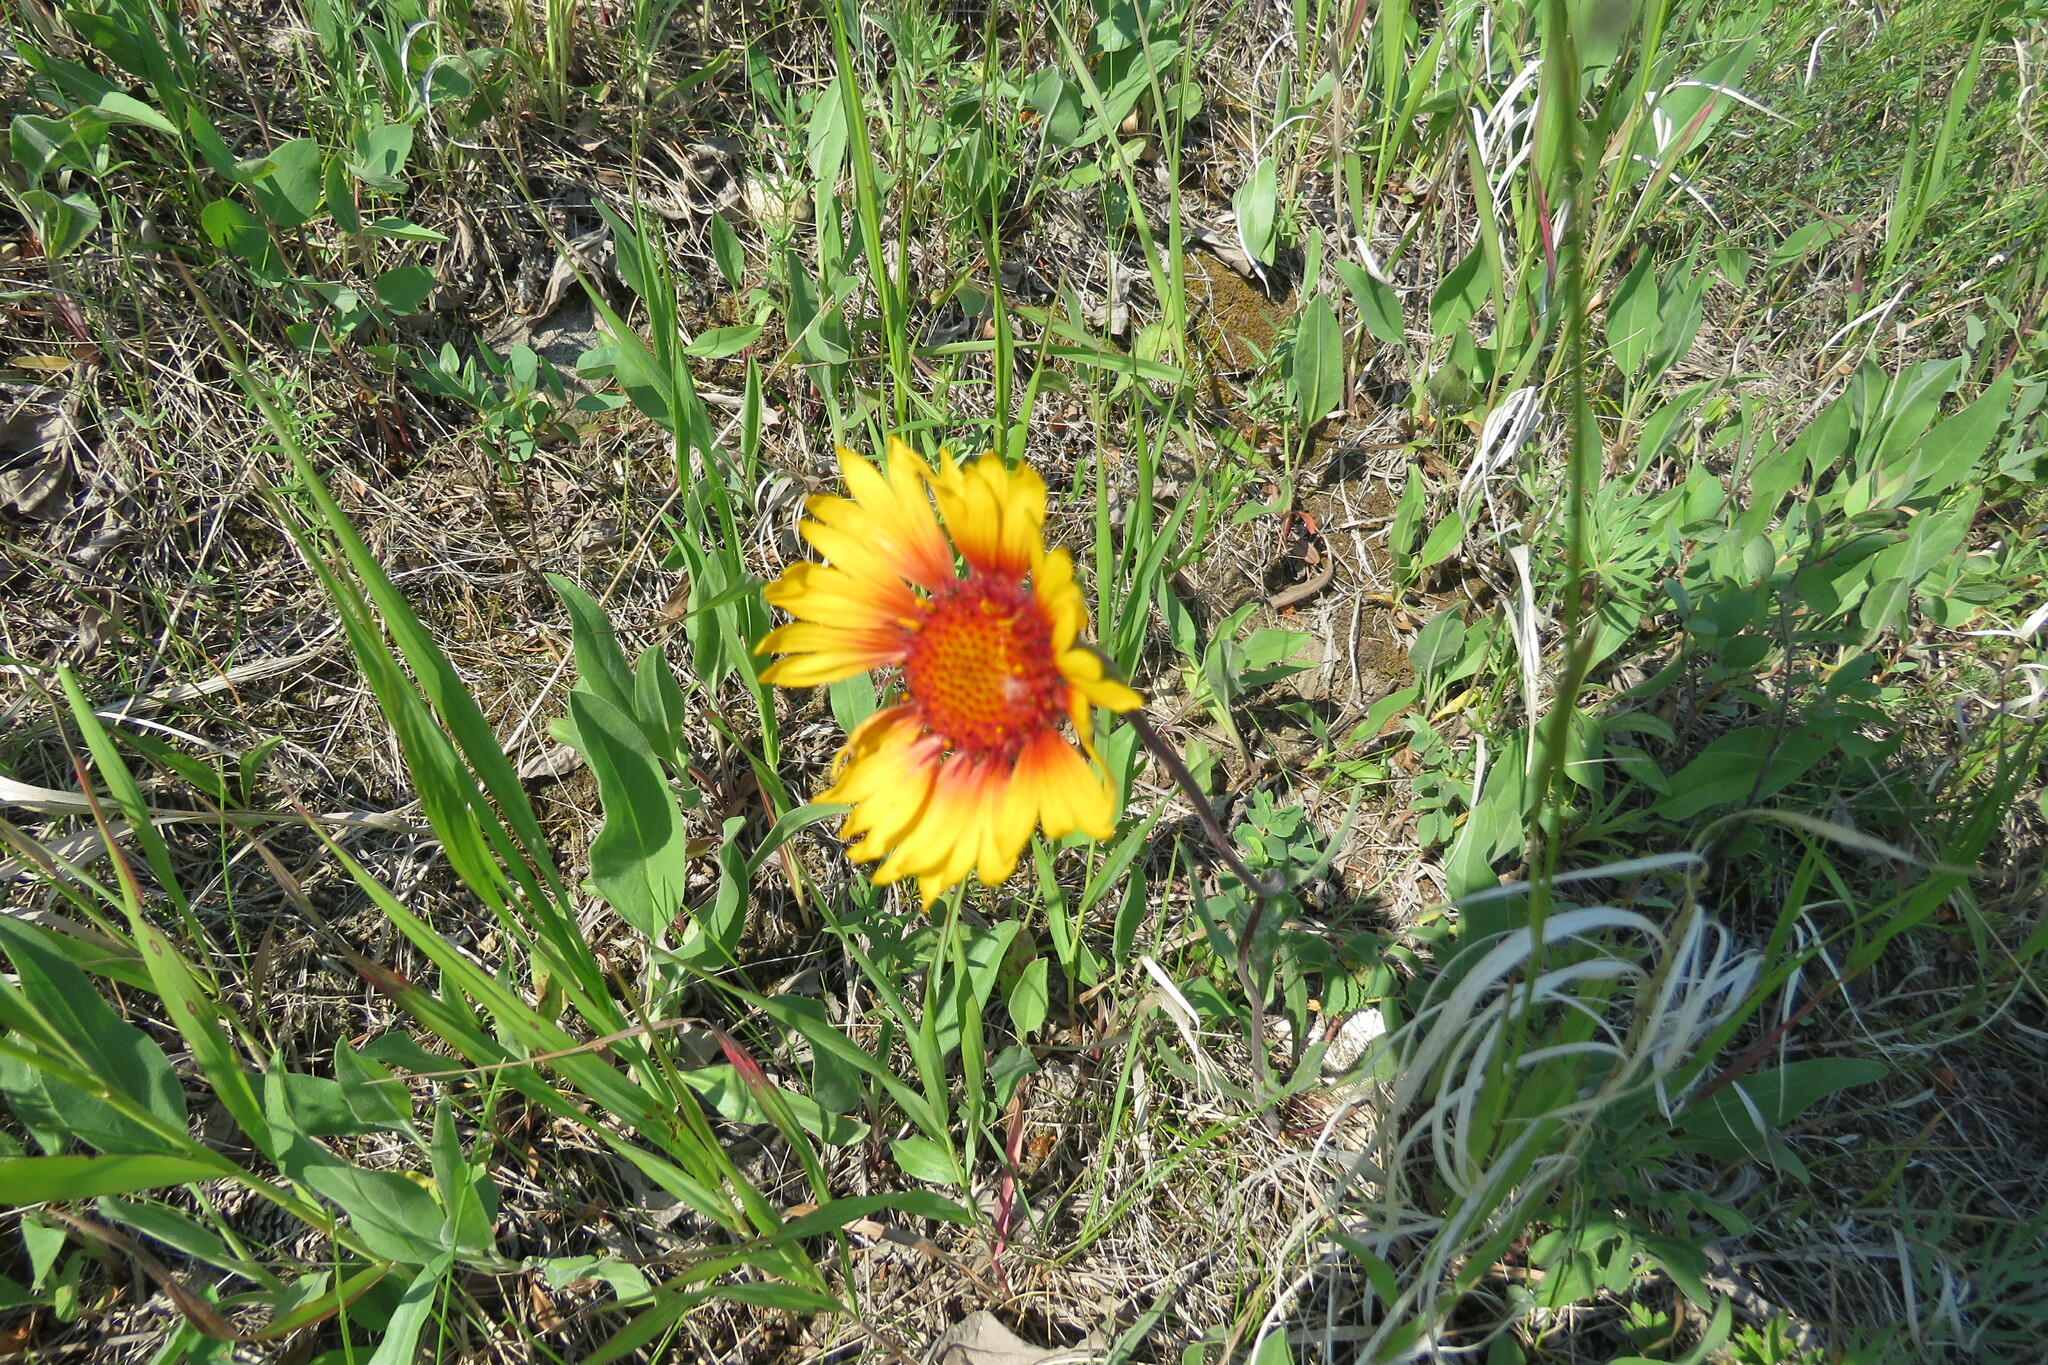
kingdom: Plantae
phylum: Tracheophyta
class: Magnoliopsida
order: Asterales
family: Asteraceae
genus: Gaillardia
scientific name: Gaillardia aristata
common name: Blanket-flower
